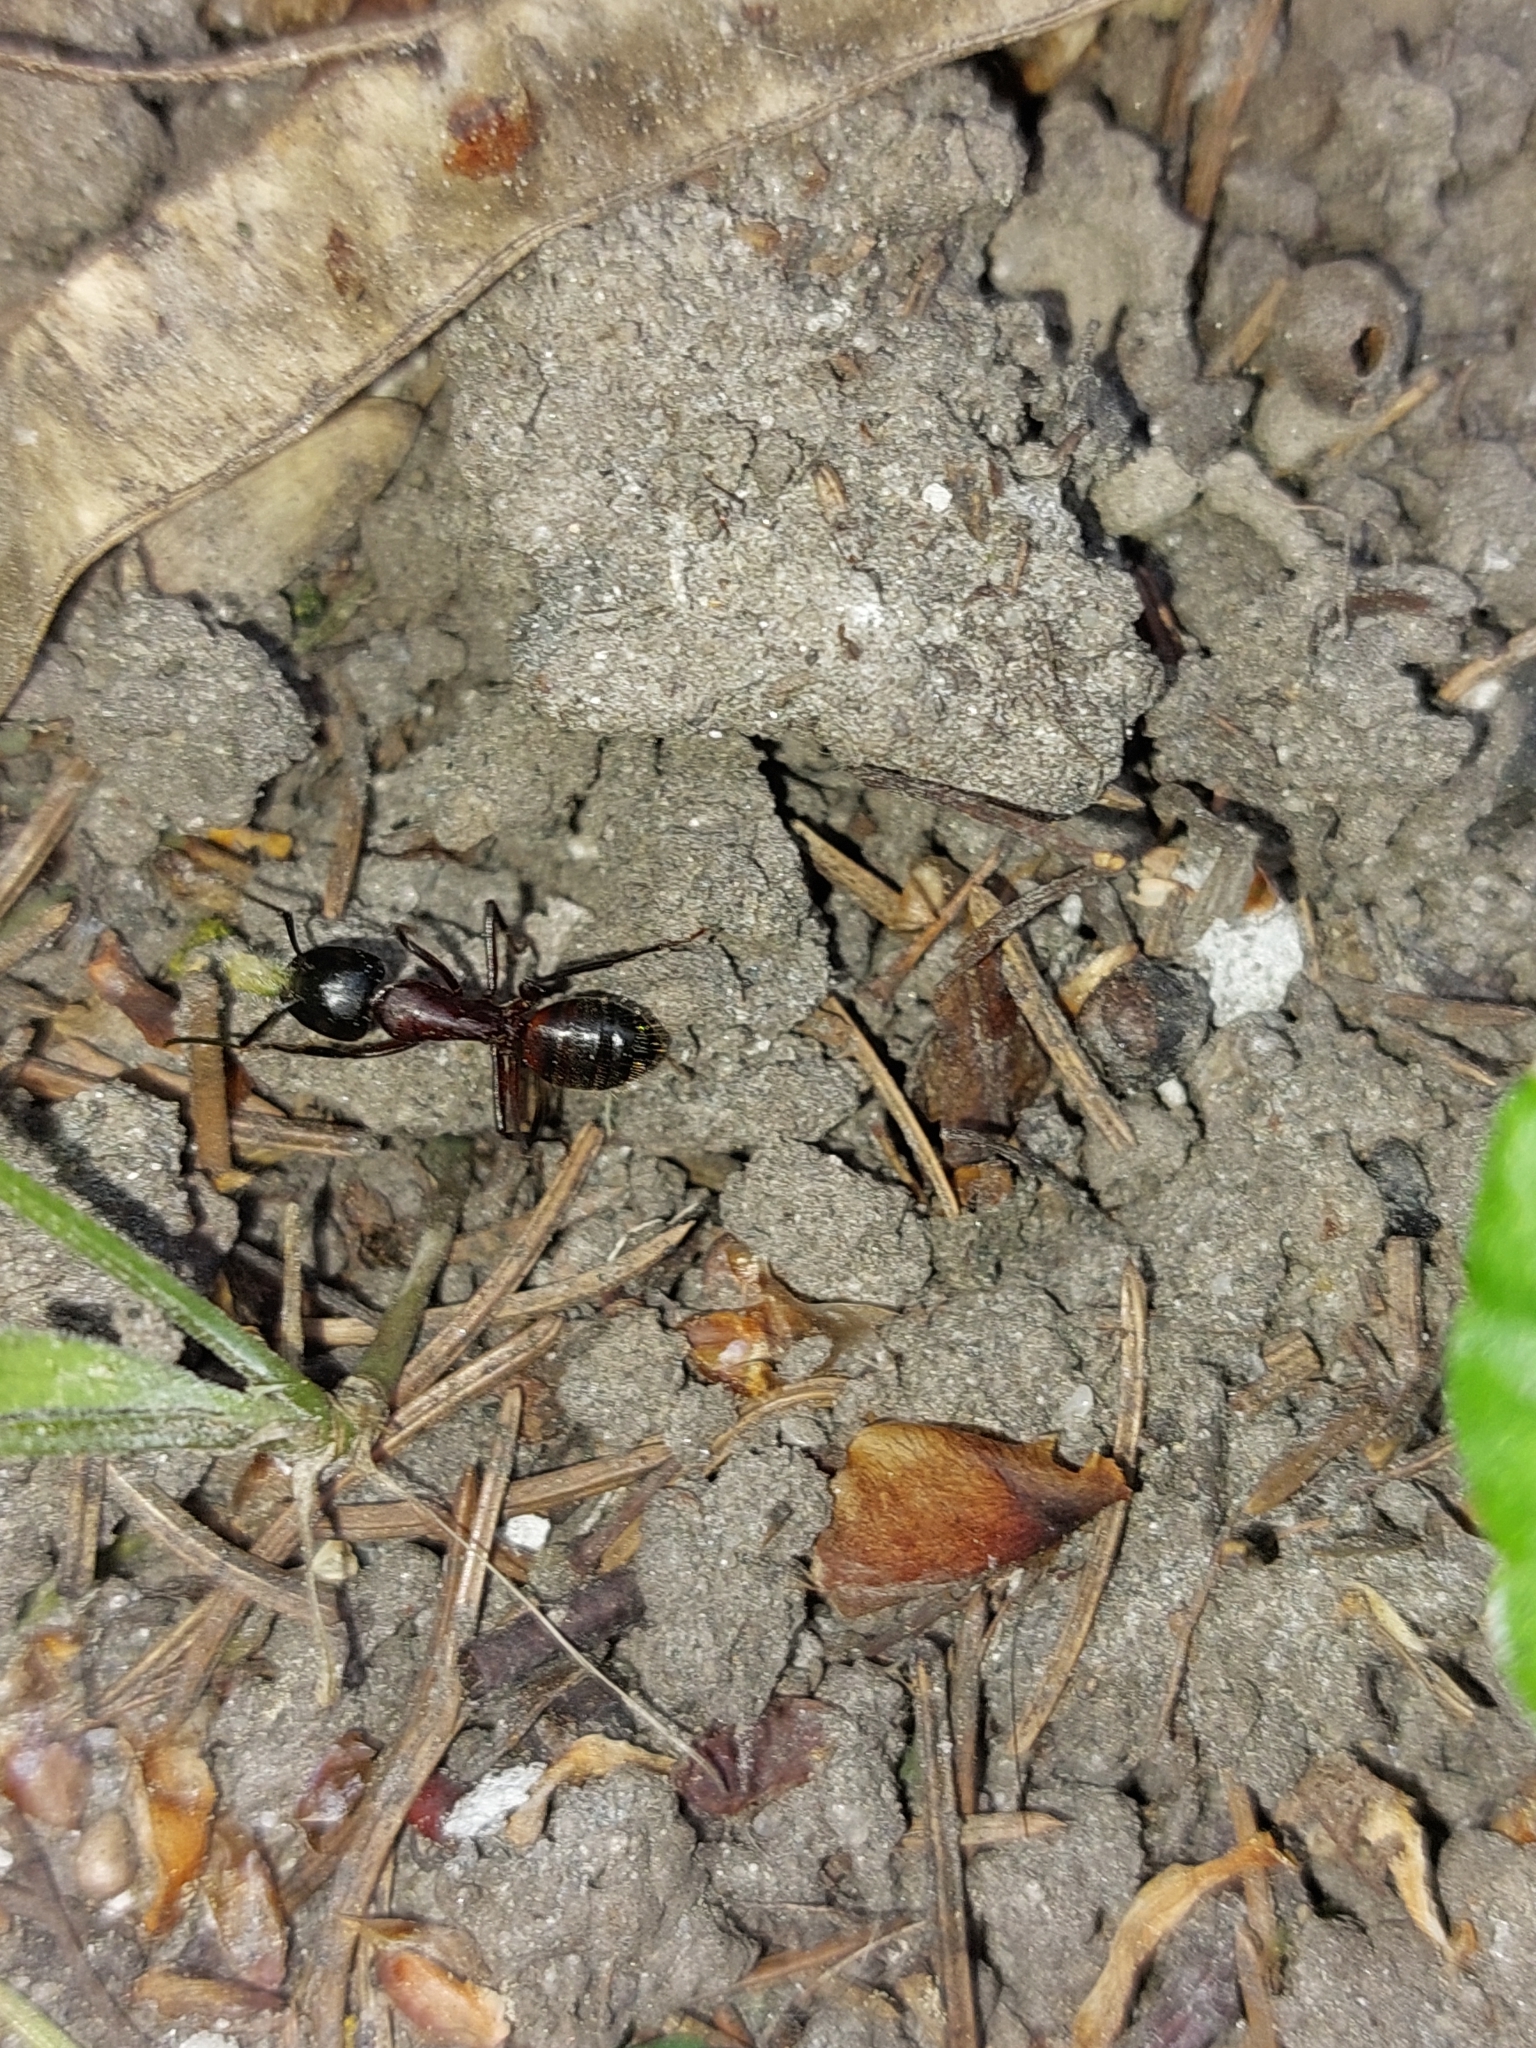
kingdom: Animalia
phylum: Arthropoda
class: Insecta
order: Hymenoptera
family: Formicidae
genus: Camponotus
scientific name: Camponotus ligniperdus
